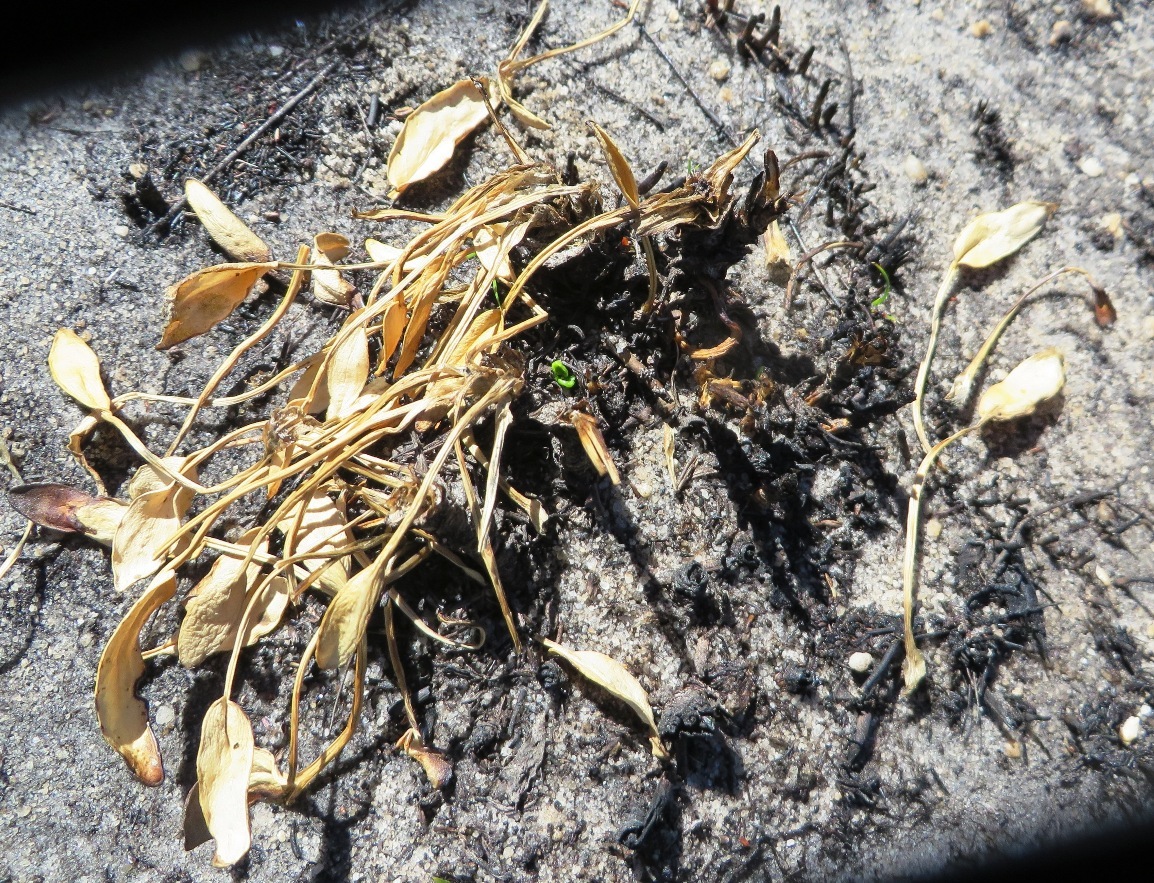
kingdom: Plantae
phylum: Tracheophyta
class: Magnoliopsida
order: Fabales
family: Fabaceae
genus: Psoralea
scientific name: Psoralea rotundifolia
